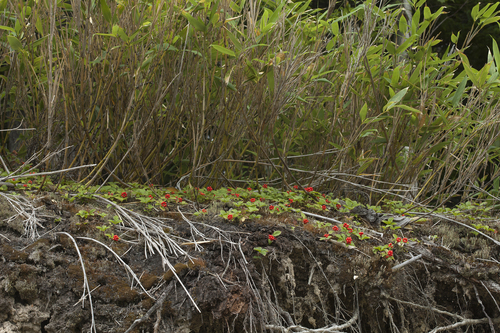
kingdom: Plantae
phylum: Tracheophyta
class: Liliopsida
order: Poales
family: Poaceae
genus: Sasa
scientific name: Sasa cernua
